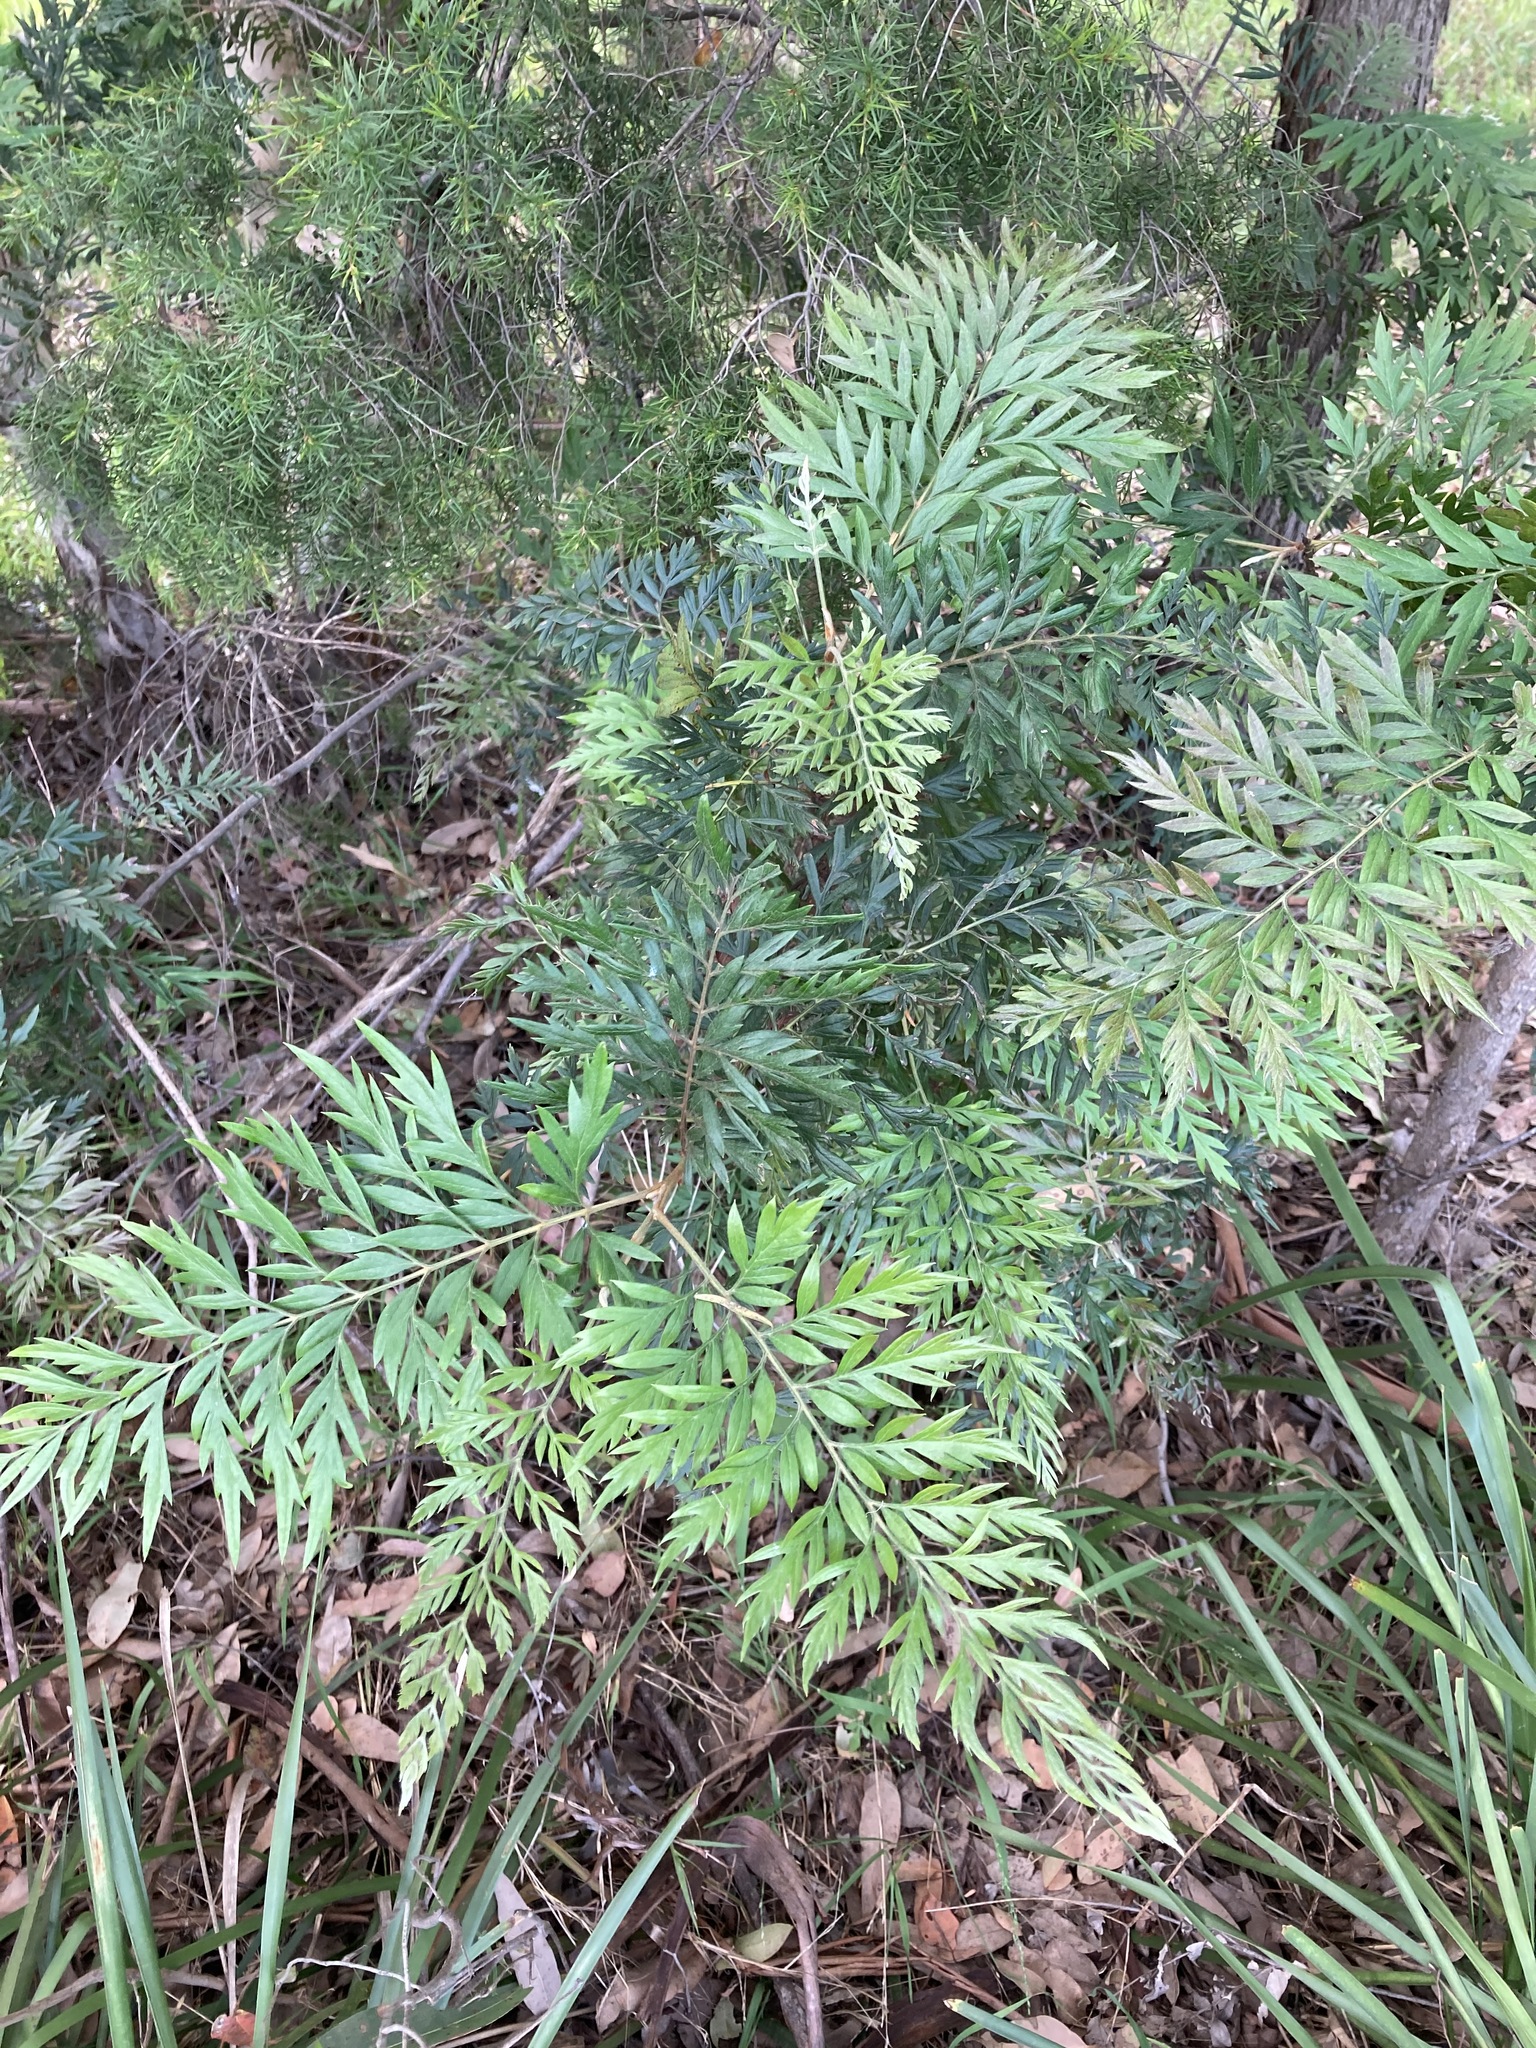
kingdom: Plantae
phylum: Tracheophyta
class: Magnoliopsida
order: Proteales
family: Proteaceae
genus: Grevillea
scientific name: Grevillea robusta
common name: Silkoak
